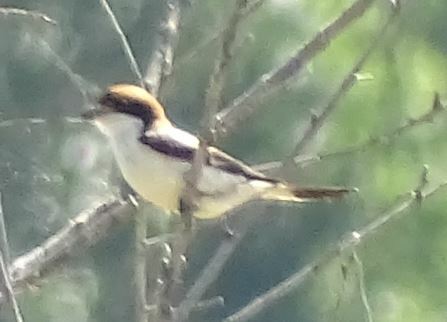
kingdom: Animalia
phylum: Chordata
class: Aves
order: Passeriformes
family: Laniidae
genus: Lanius
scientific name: Lanius senator
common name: Woodchat shrike
